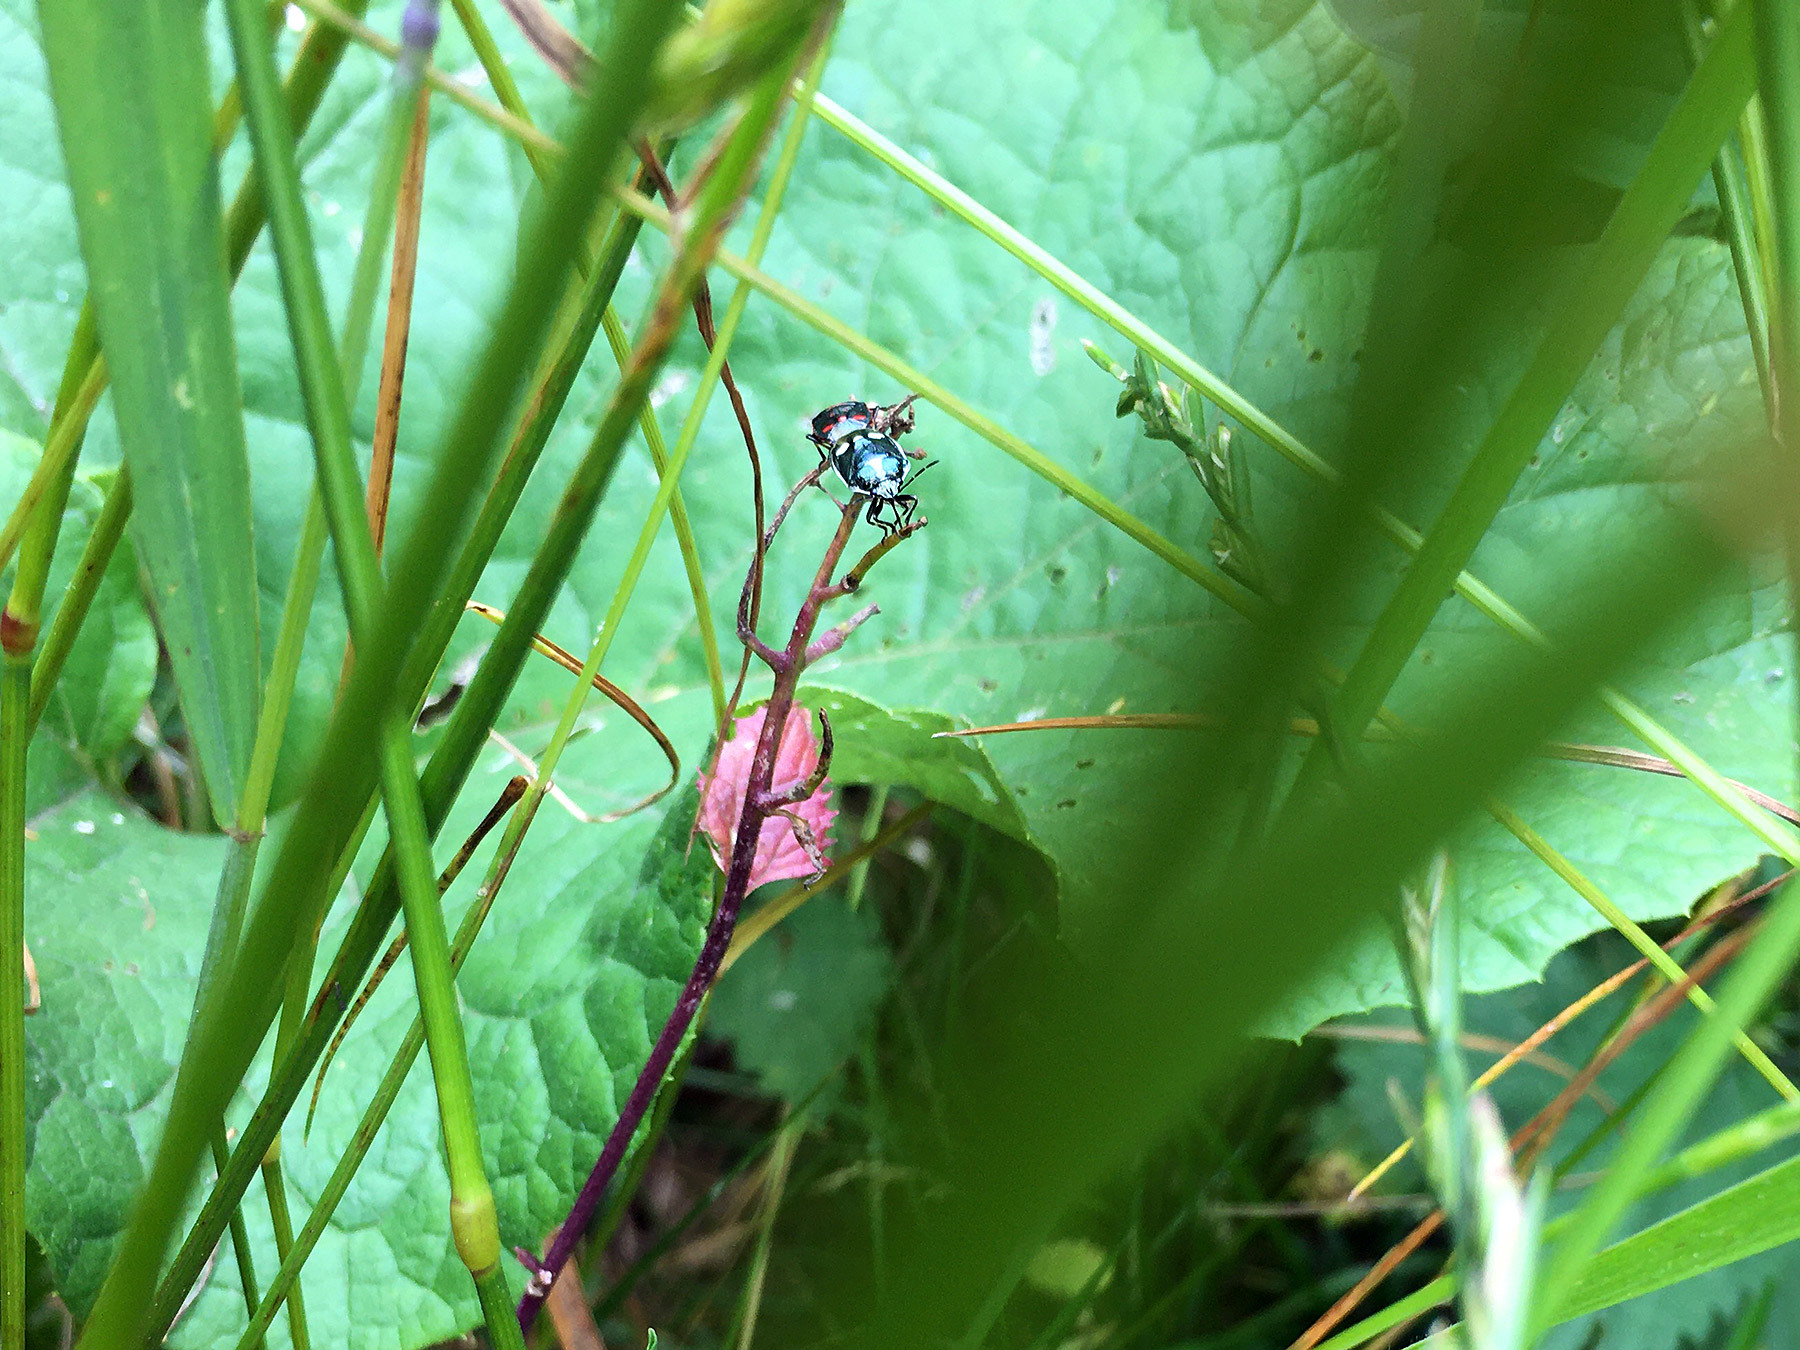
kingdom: Animalia
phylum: Arthropoda
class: Insecta
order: Hemiptera
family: Pentatomidae
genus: Eurydema
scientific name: Eurydema oleracea
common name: Cabbage bug
